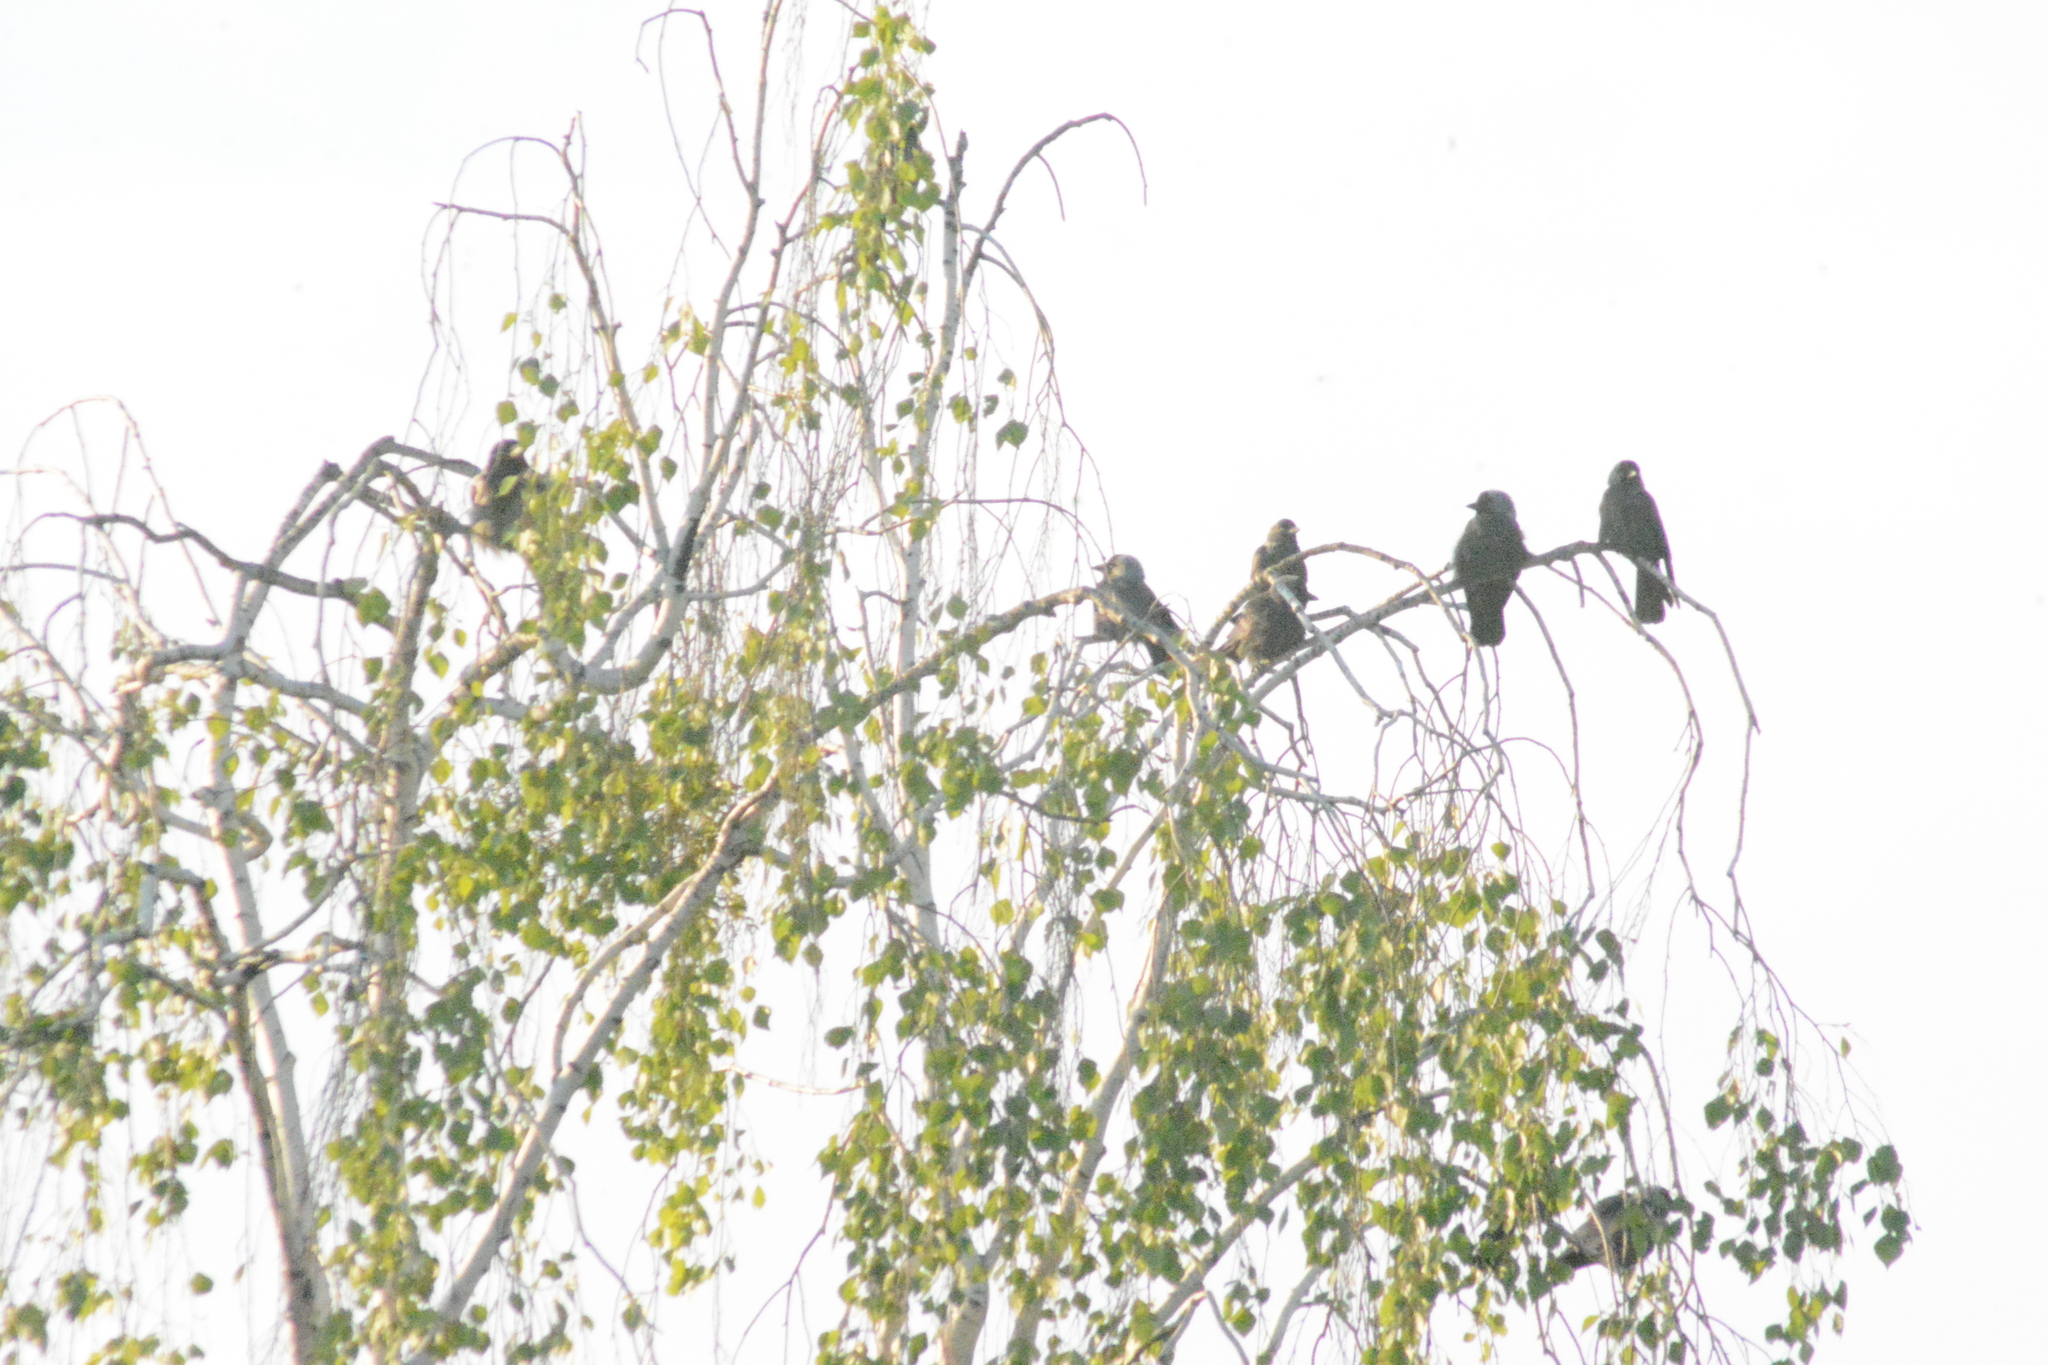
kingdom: Animalia
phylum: Chordata
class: Aves
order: Passeriformes
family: Corvidae
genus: Coloeus
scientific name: Coloeus monedula
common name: Western jackdaw
